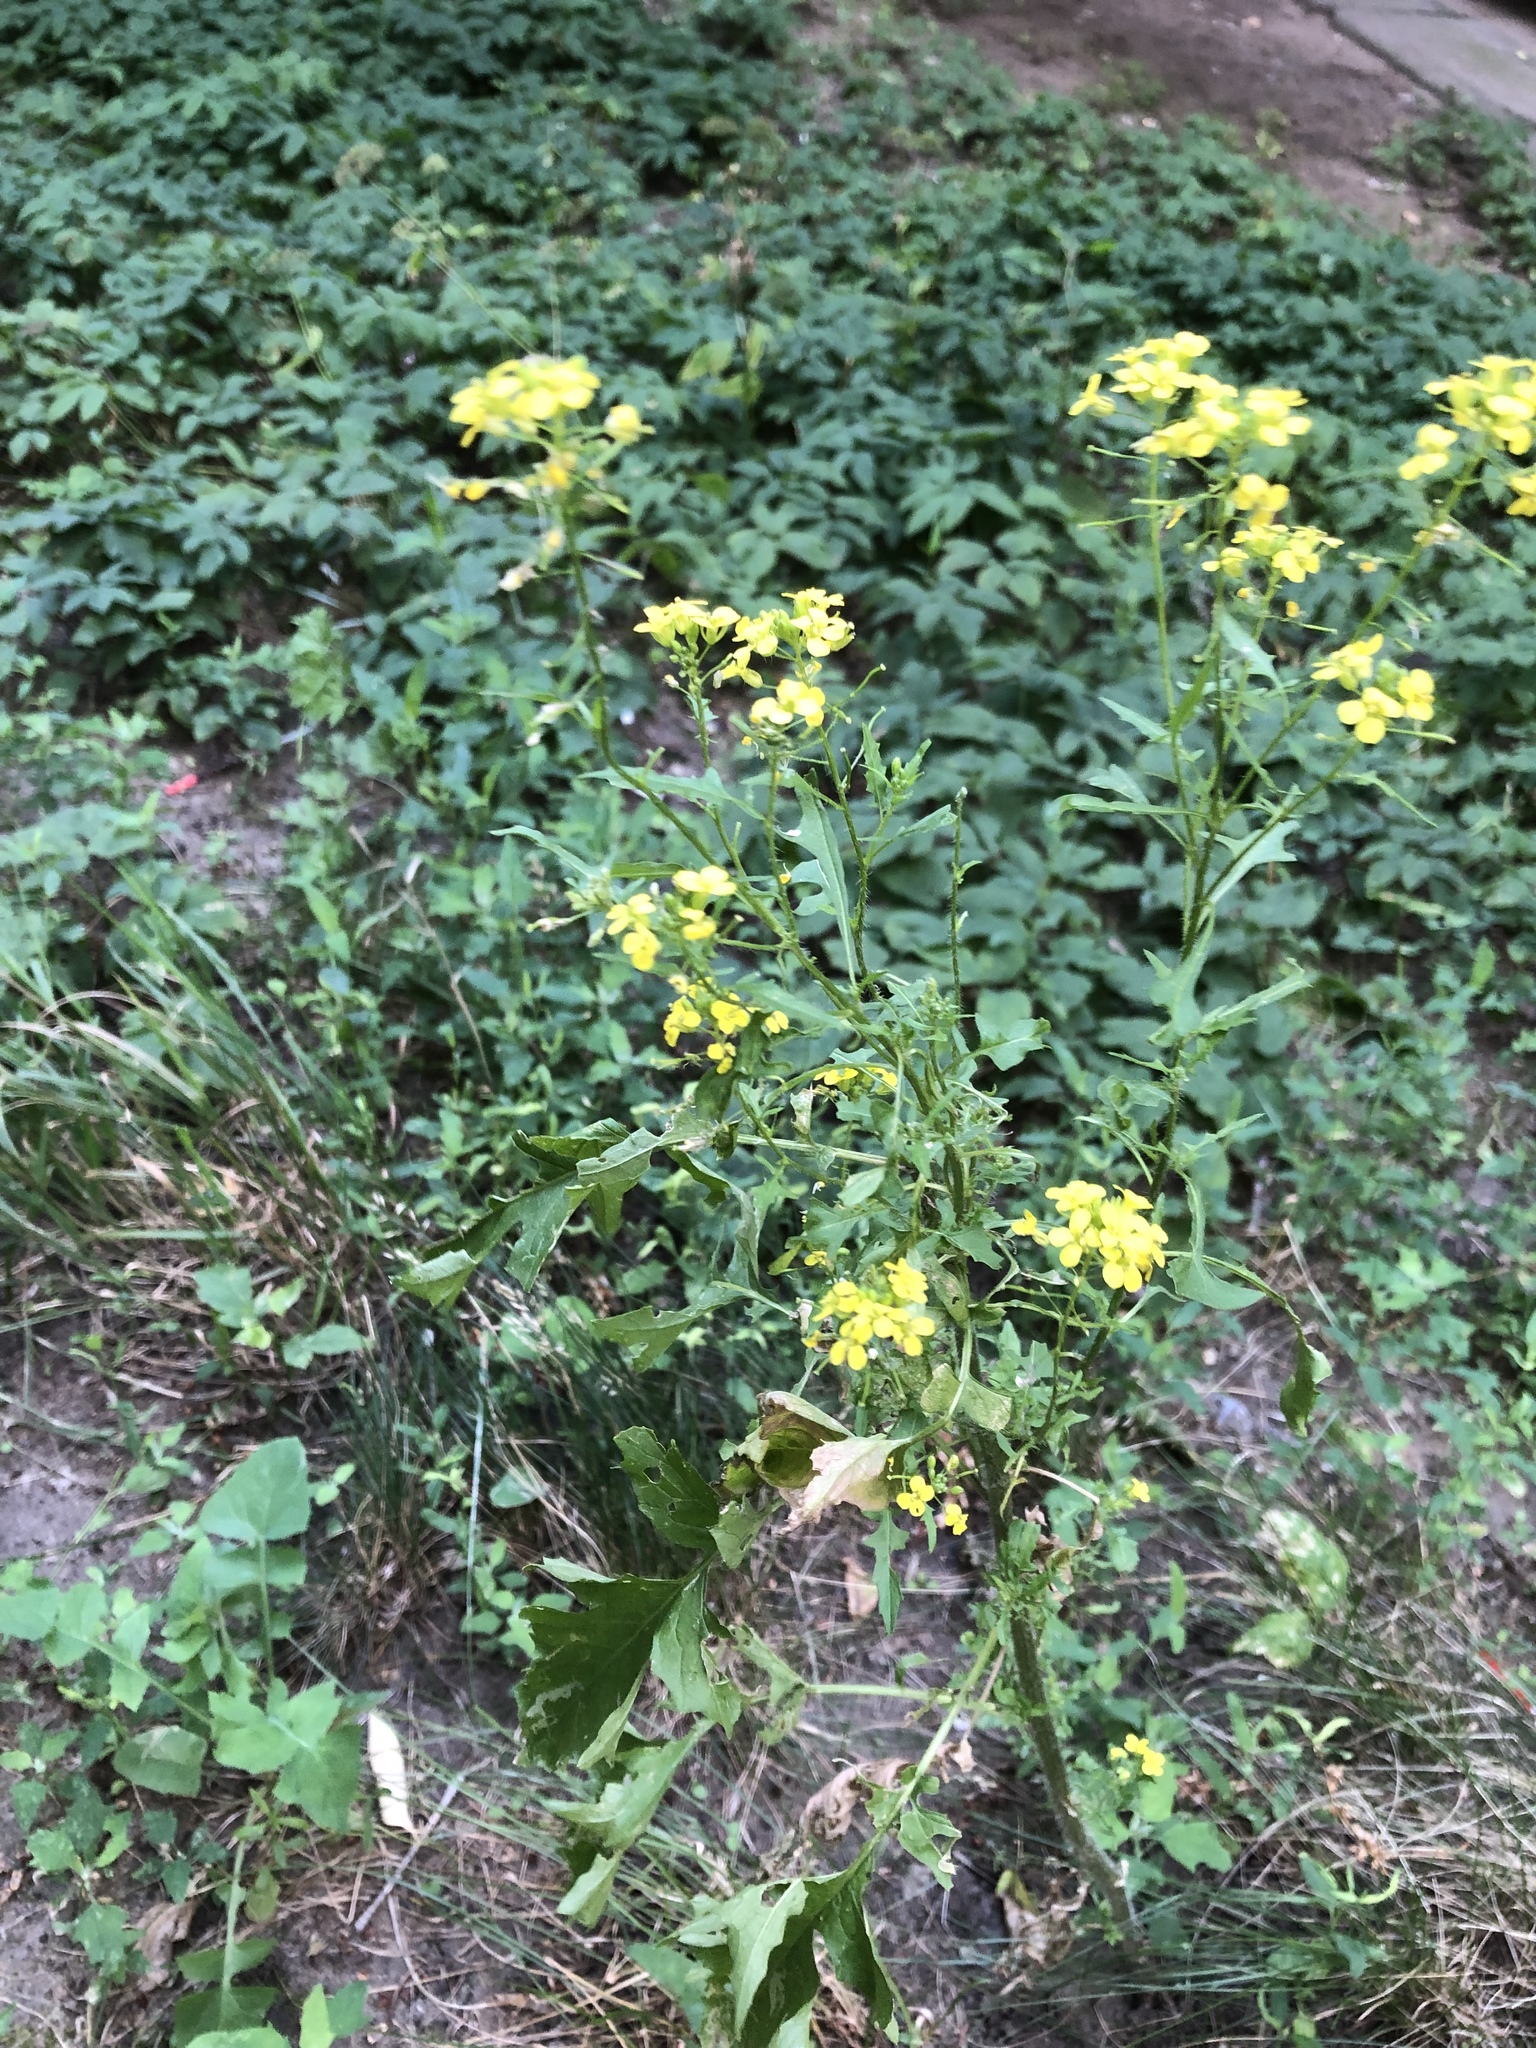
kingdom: Plantae
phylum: Tracheophyta
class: Magnoliopsida
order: Brassicales
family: Brassicaceae
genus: Sisymbrium
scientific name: Sisymbrium loeselii
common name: False london-rocket
